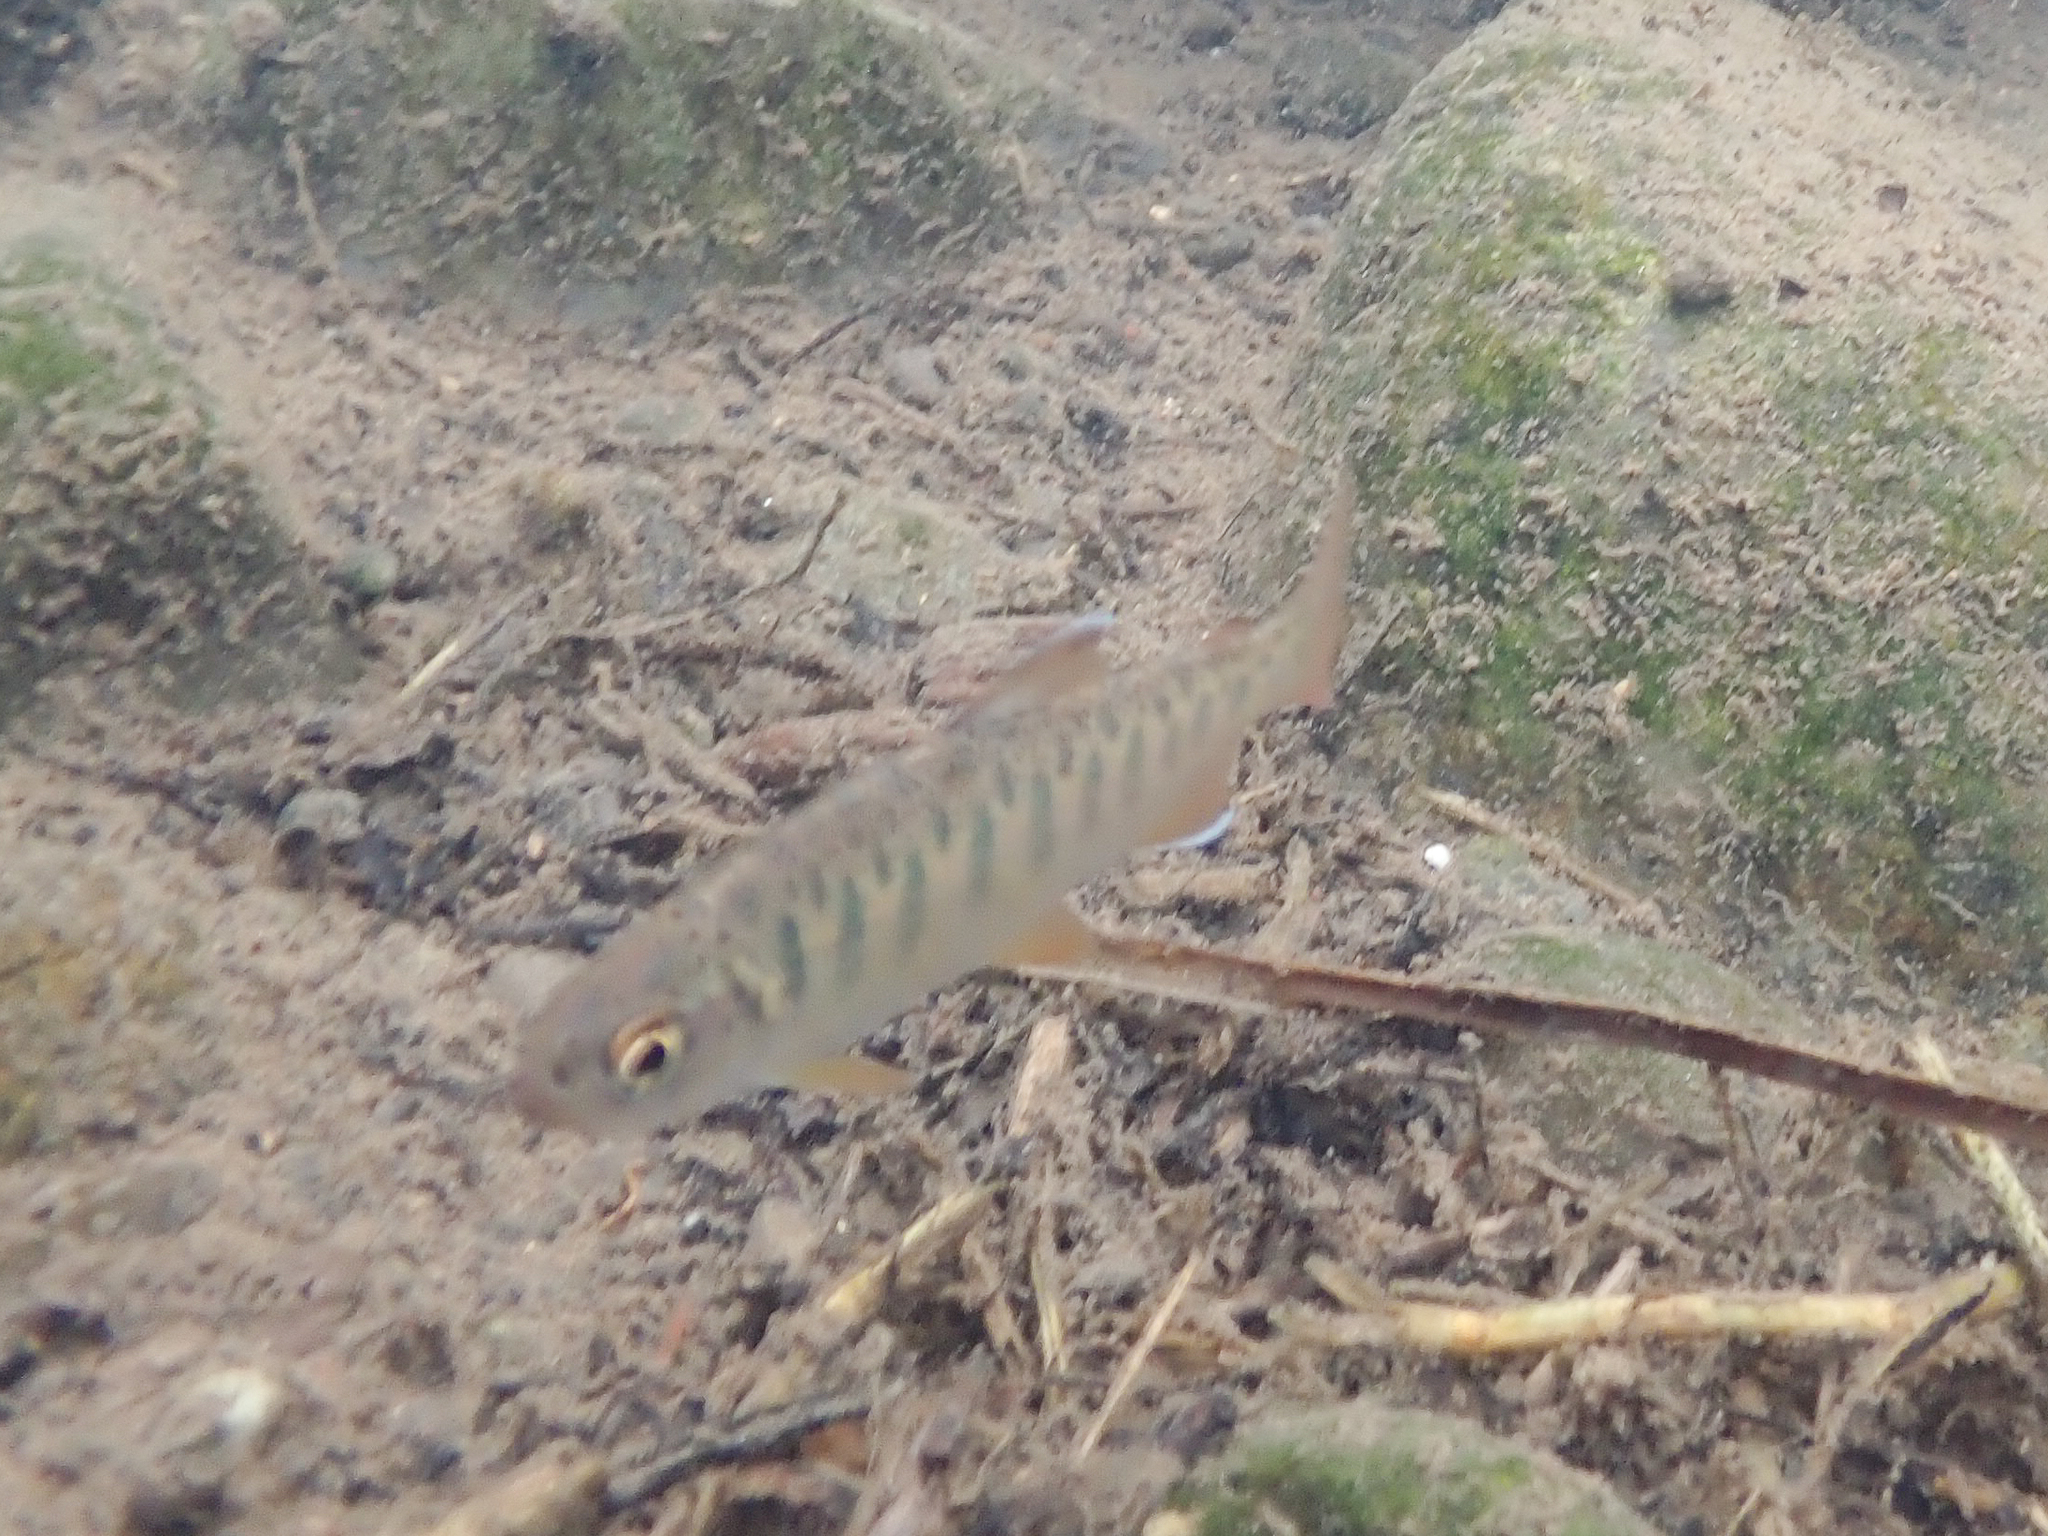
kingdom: Animalia
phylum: Chordata
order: Salmoniformes
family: Salmonidae
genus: Oncorhynchus
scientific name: Oncorhynchus kisutch
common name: Coho salmon
